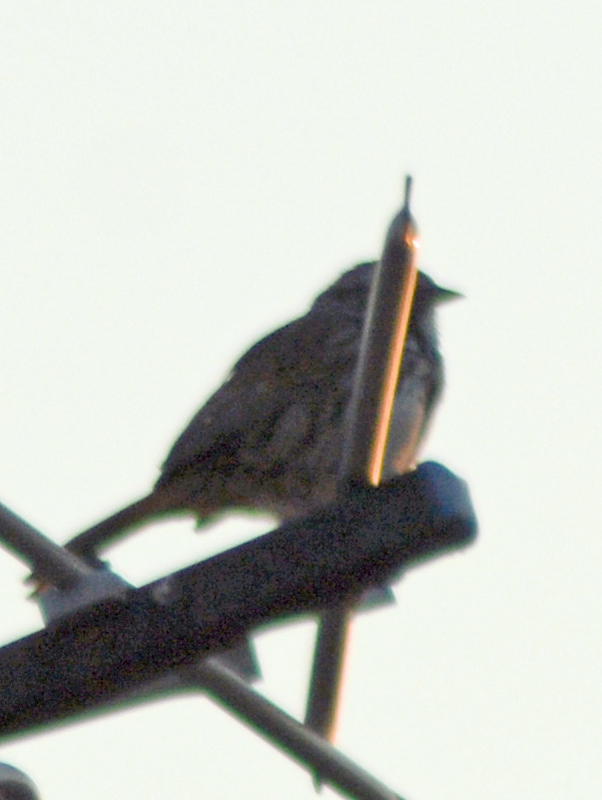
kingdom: Animalia
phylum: Chordata
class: Aves
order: Passeriformes
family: Passerellidae
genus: Melospiza
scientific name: Melospiza melodia
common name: Song sparrow
